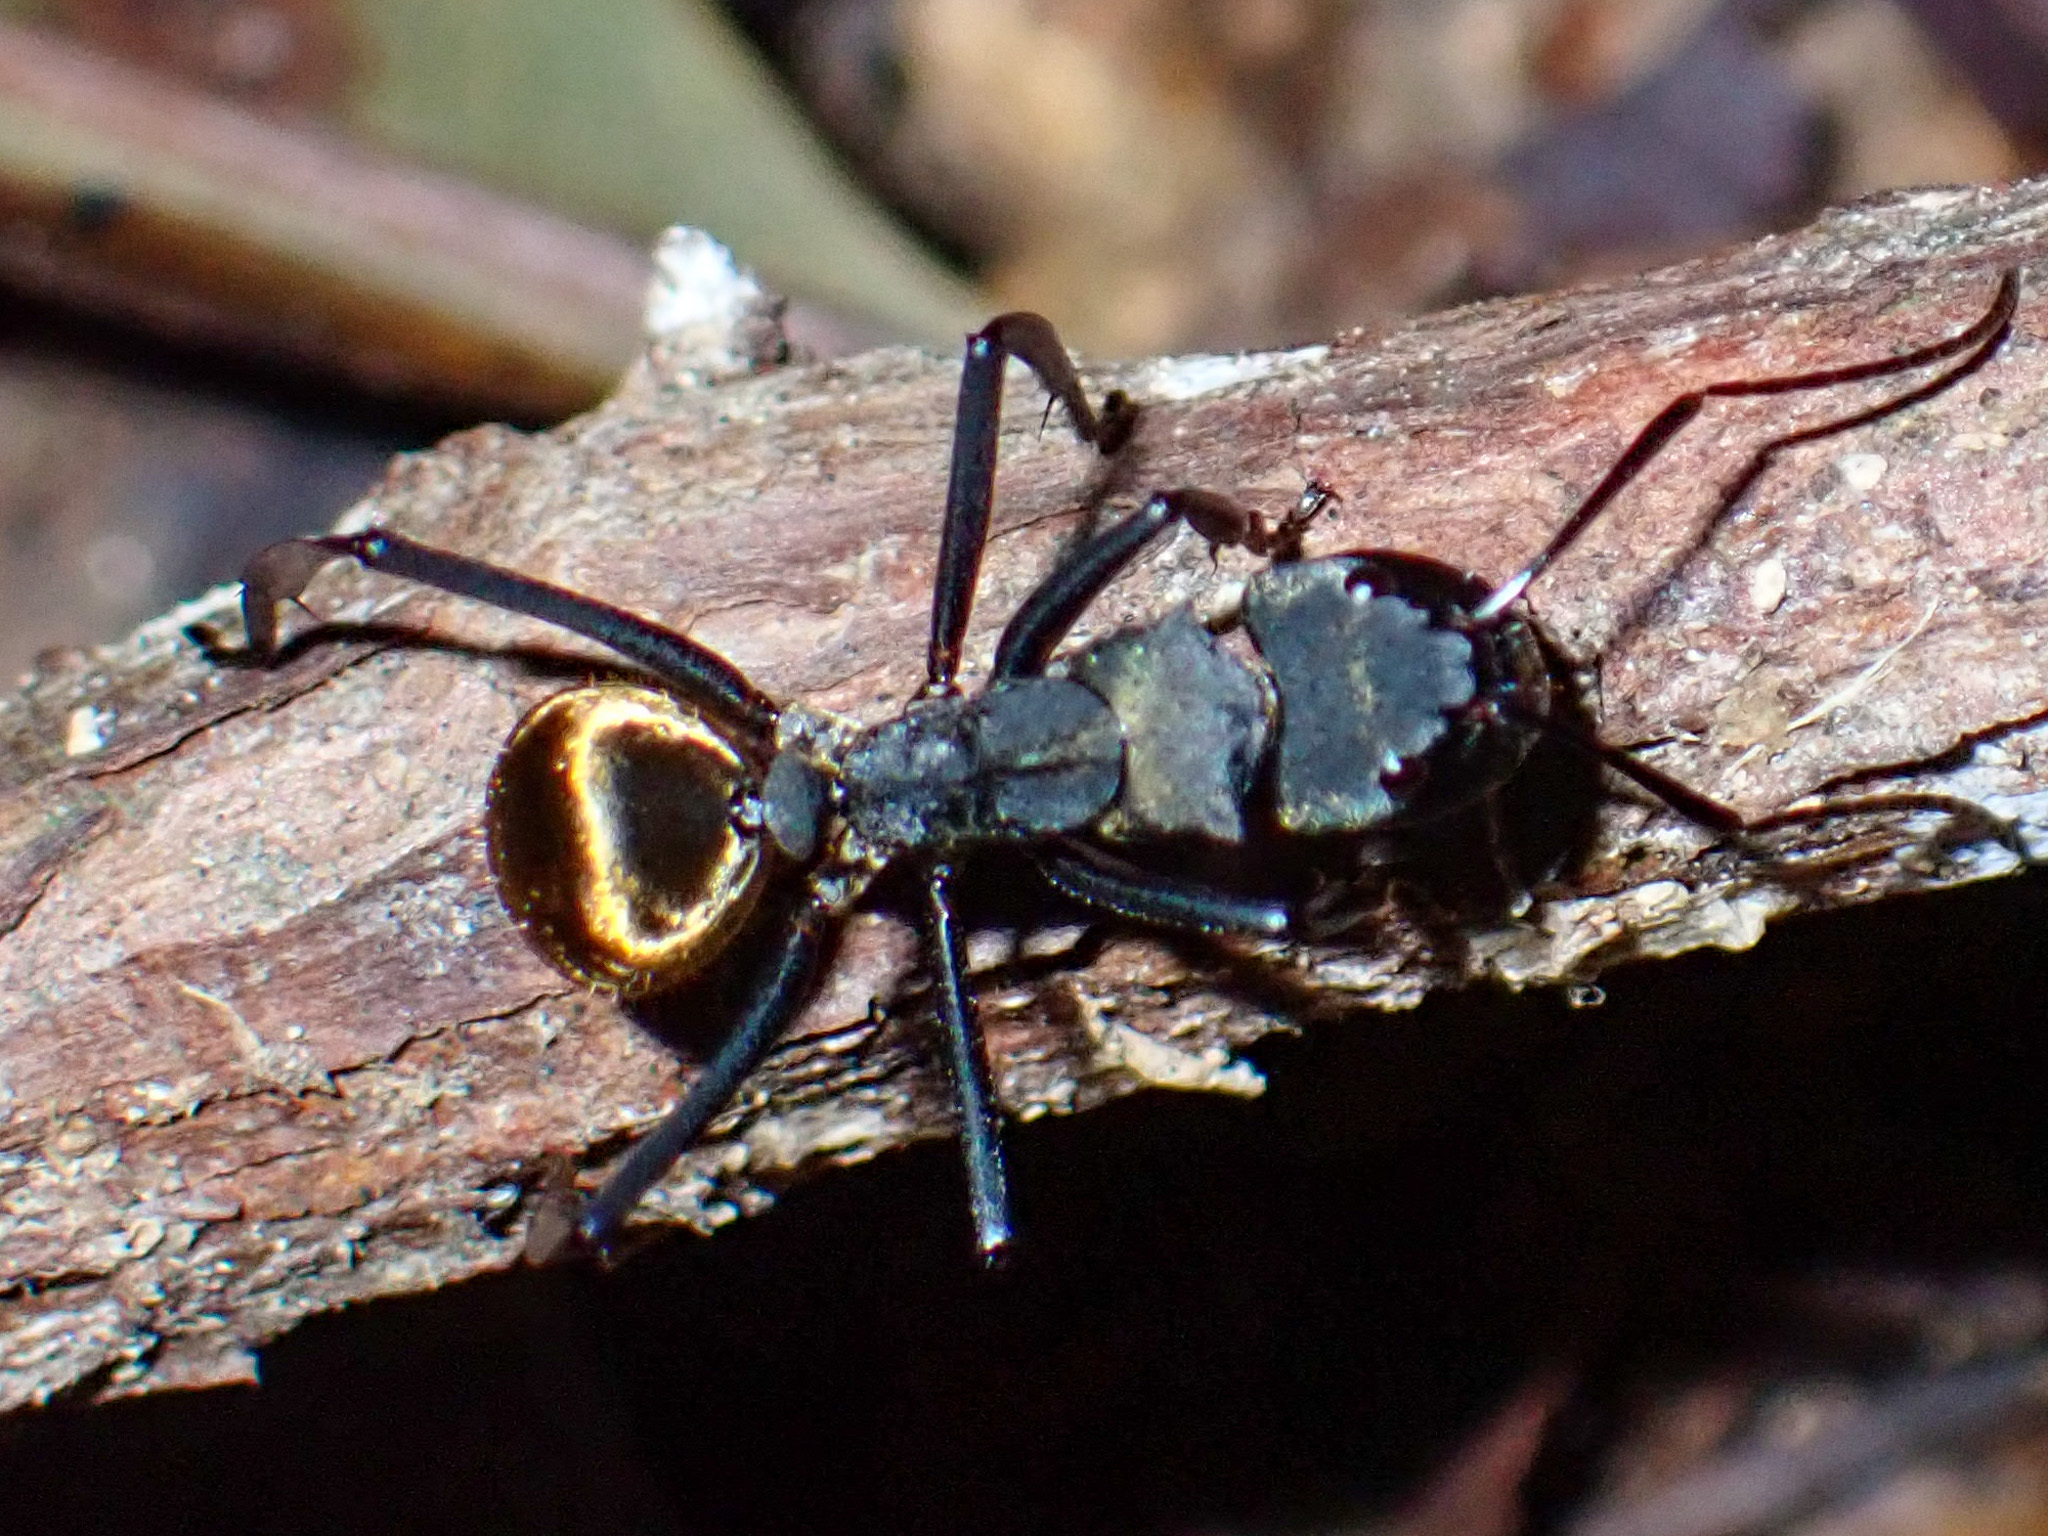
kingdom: Animalia
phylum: Arthropoda
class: Insecta
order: Hymenoptera
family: Formicidae
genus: Camponotus
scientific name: Camponotus sericeiventris
